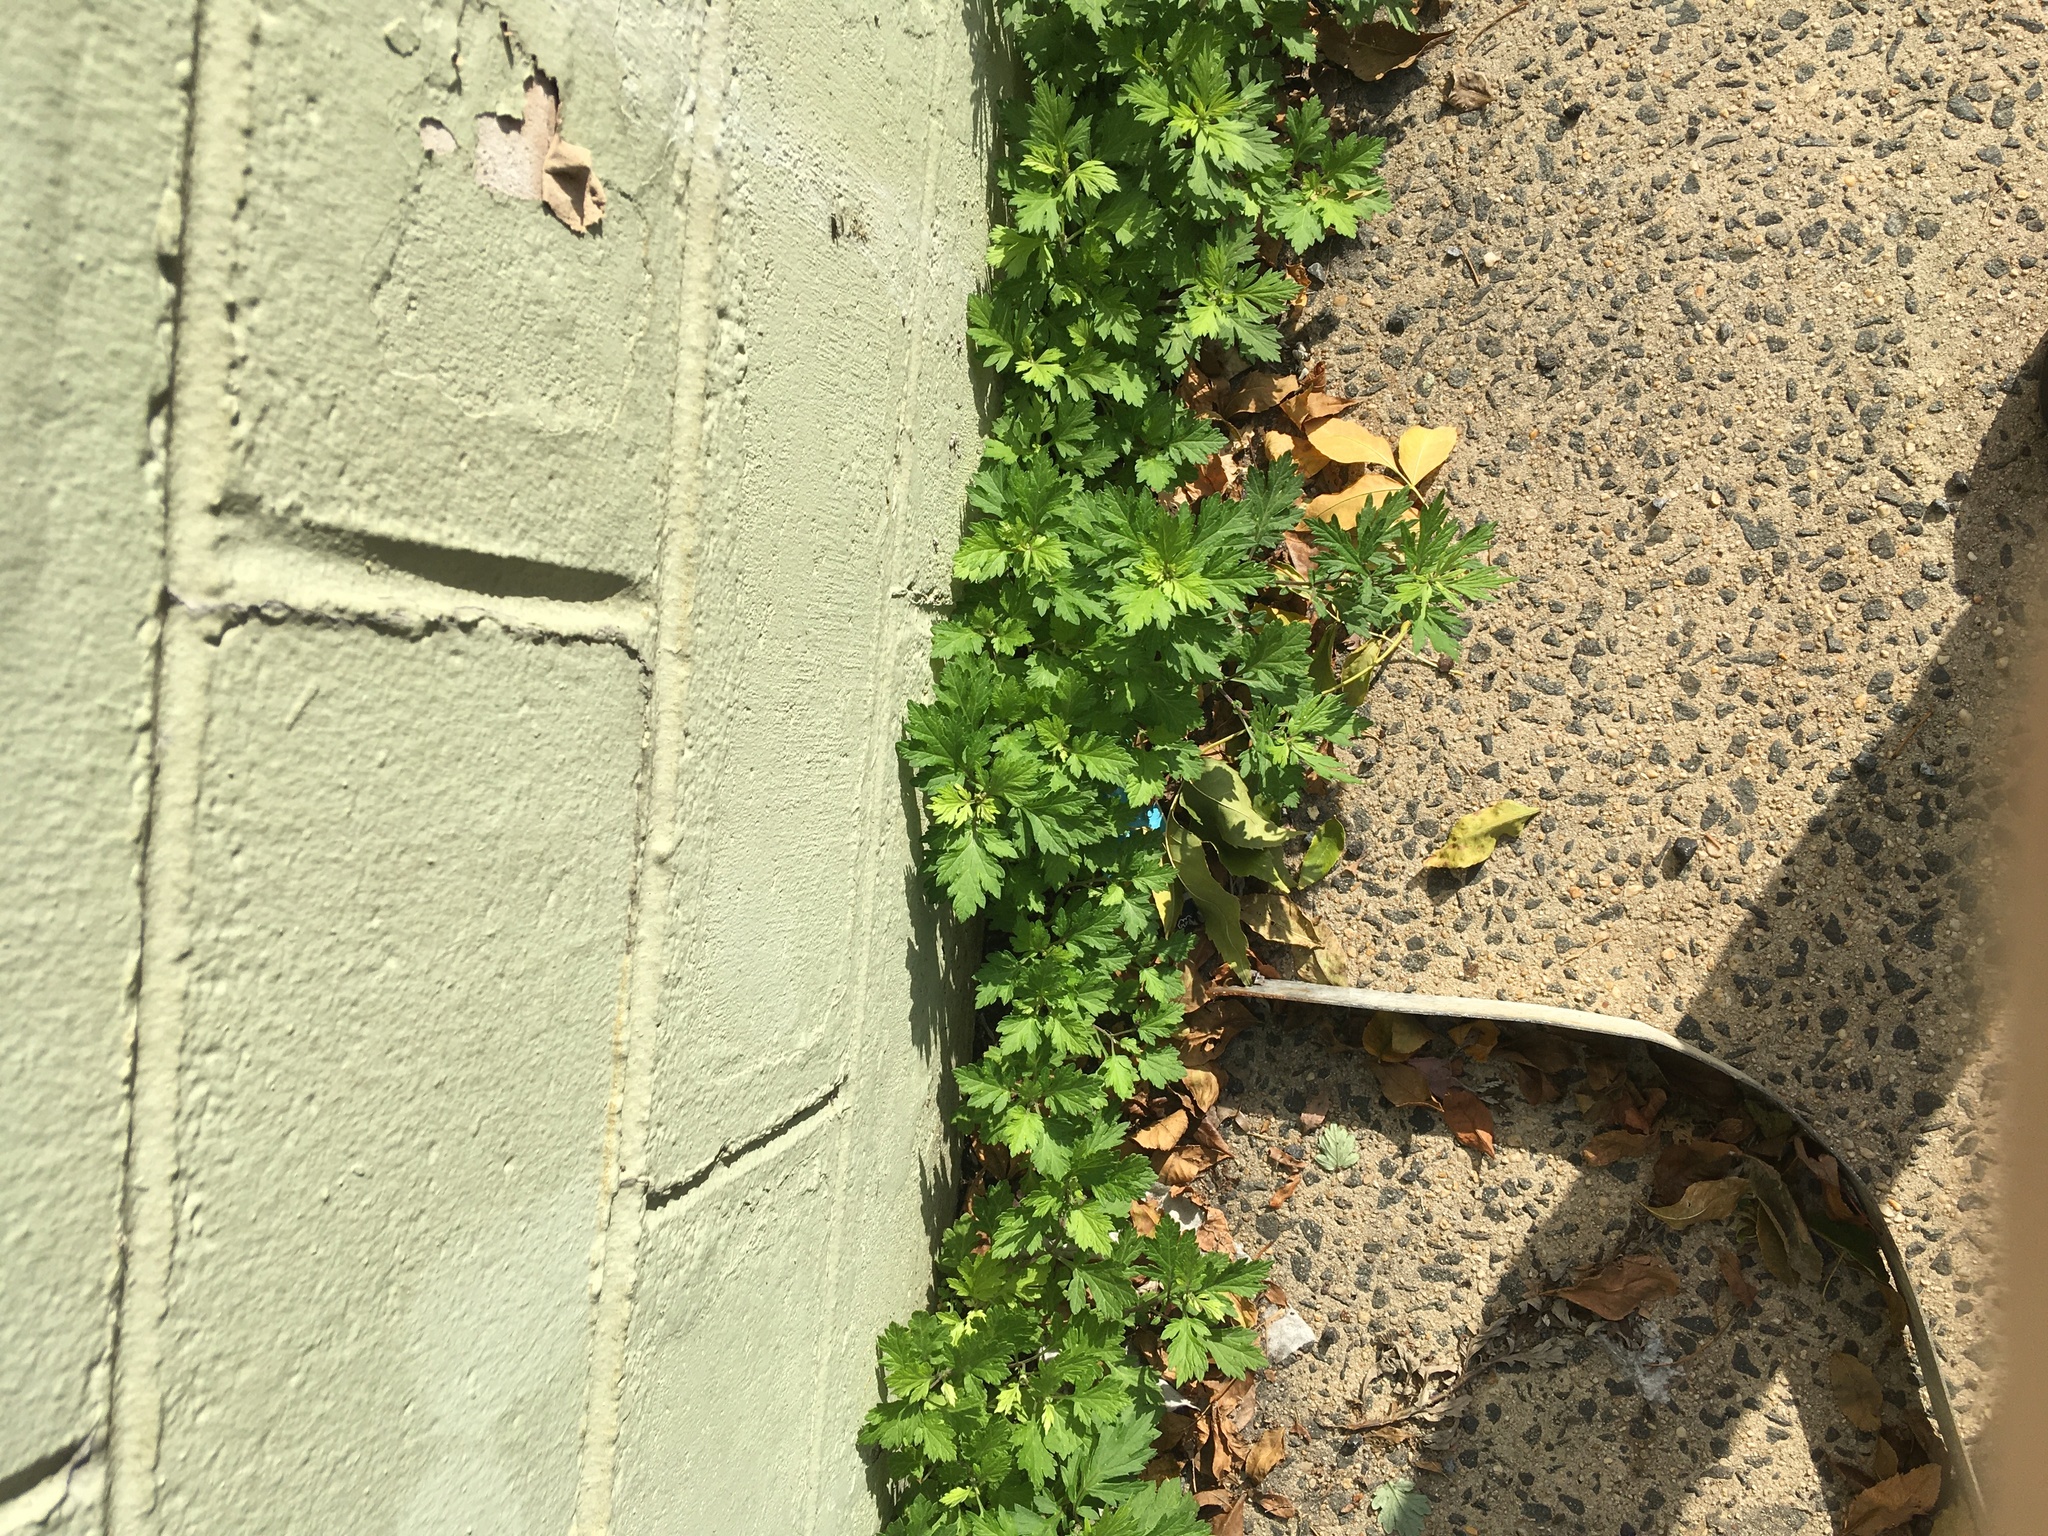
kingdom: Plantae
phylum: Tracheophyta
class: Magnoliopsida
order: Asterales
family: Asteraceae
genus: Artemisia
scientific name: Artemisia vulgaris
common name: Mugwort
